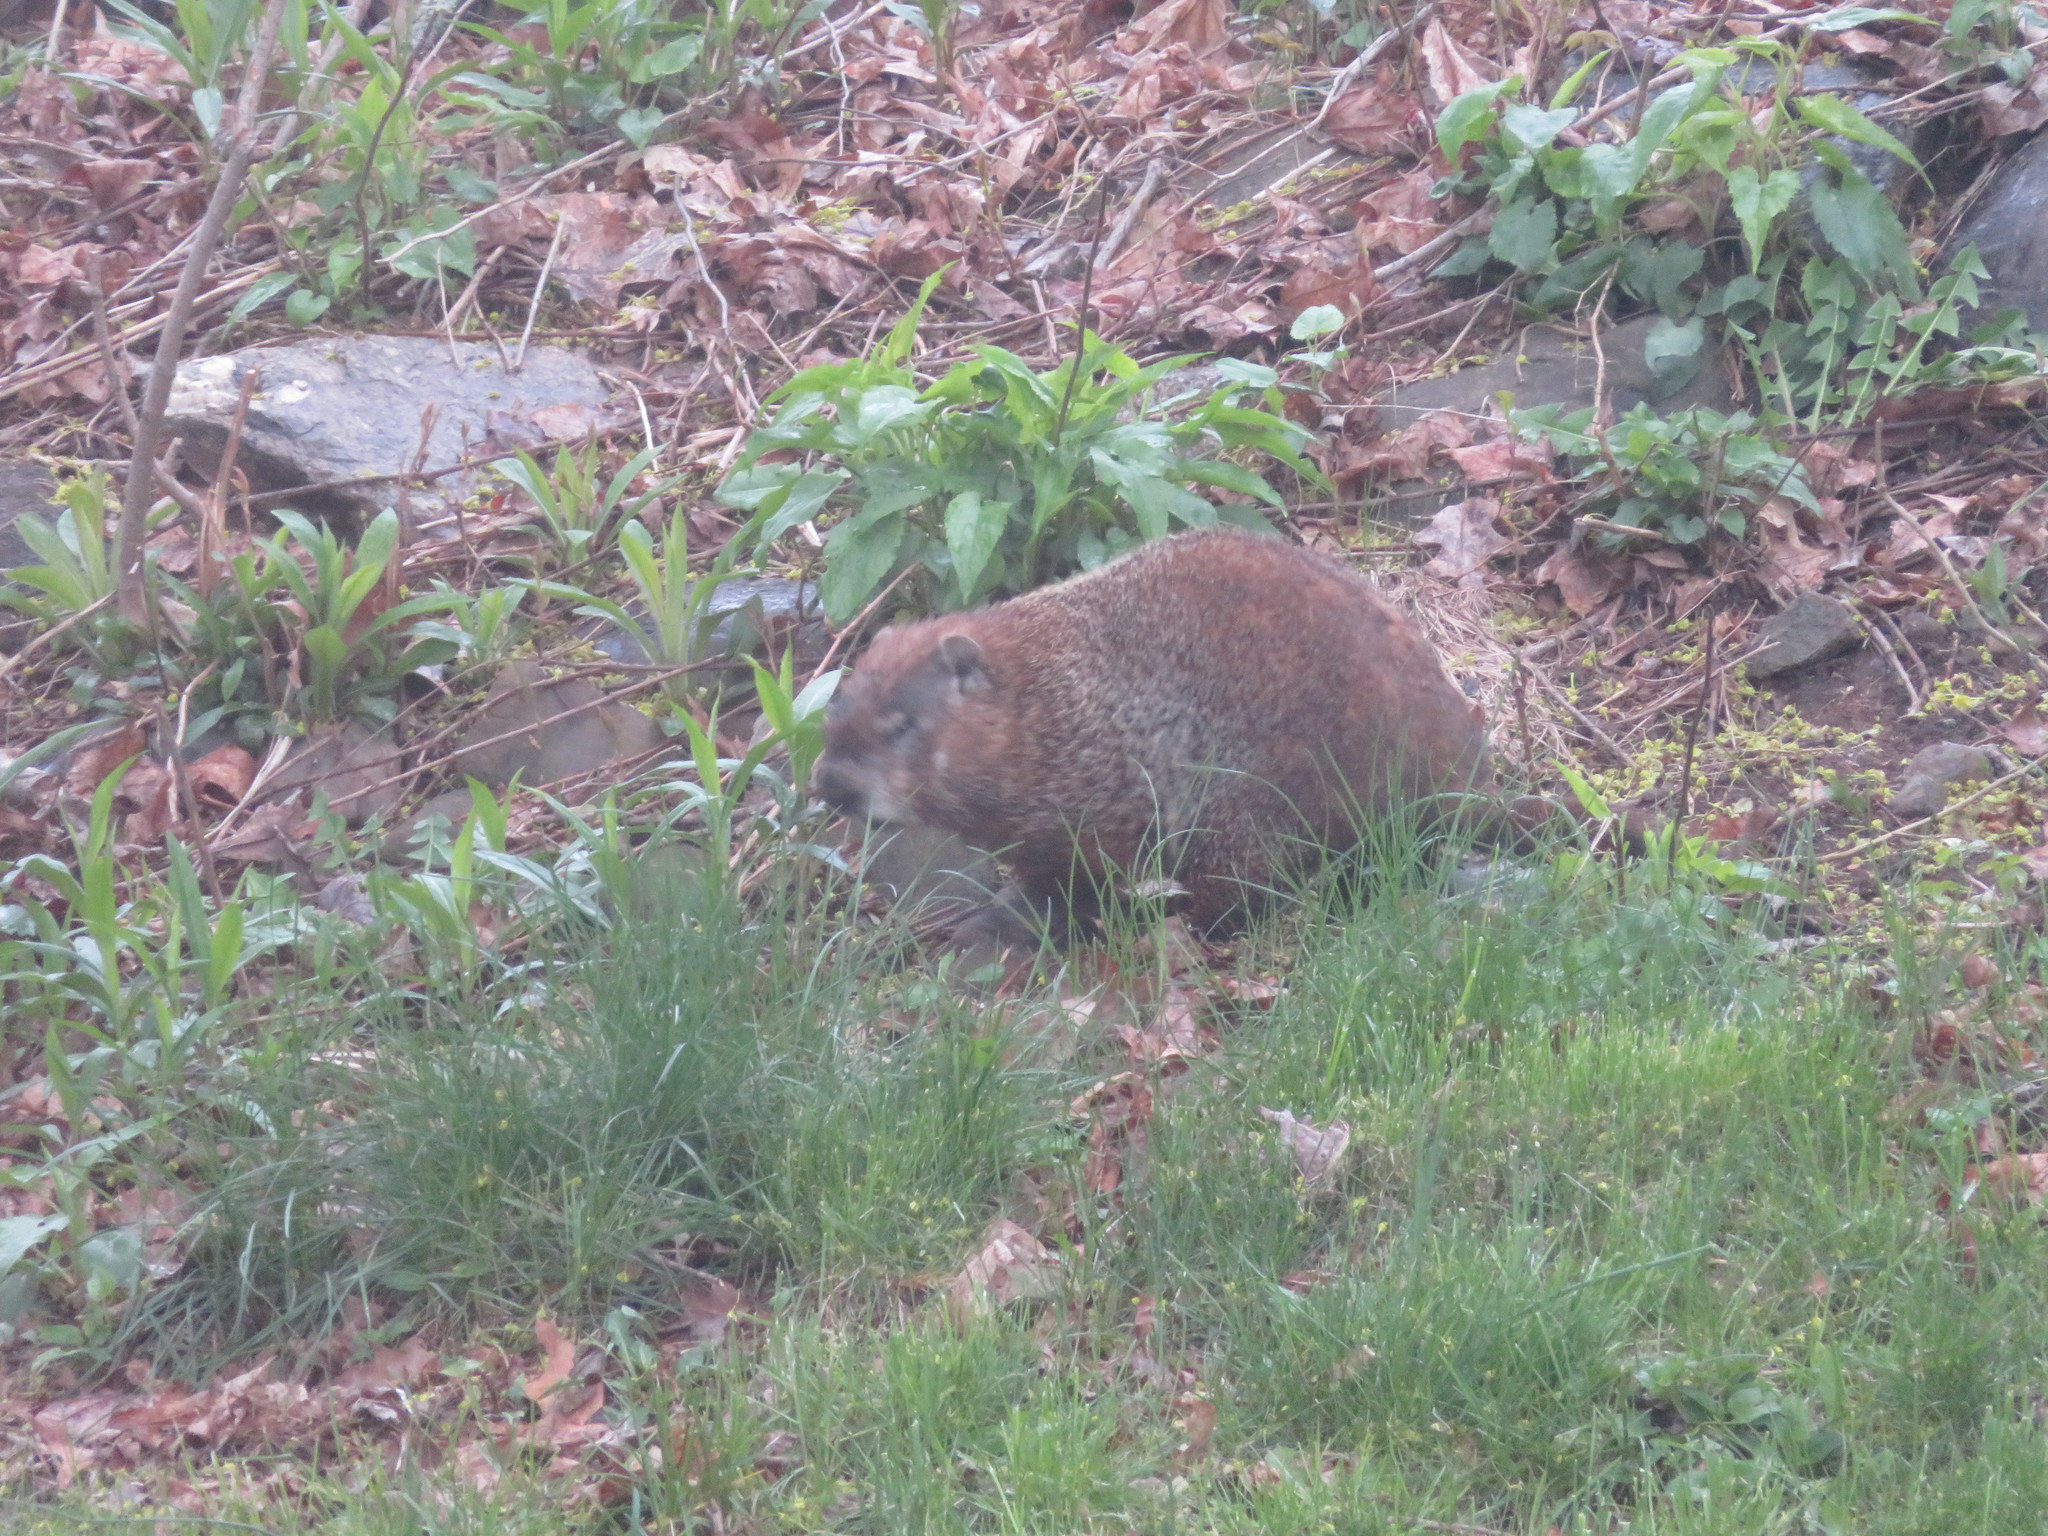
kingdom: Animalia
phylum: Chordata
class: Mammalia
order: Rodentia
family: Sciuridae
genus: Marmota
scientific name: Marmota monax
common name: Groundhog
